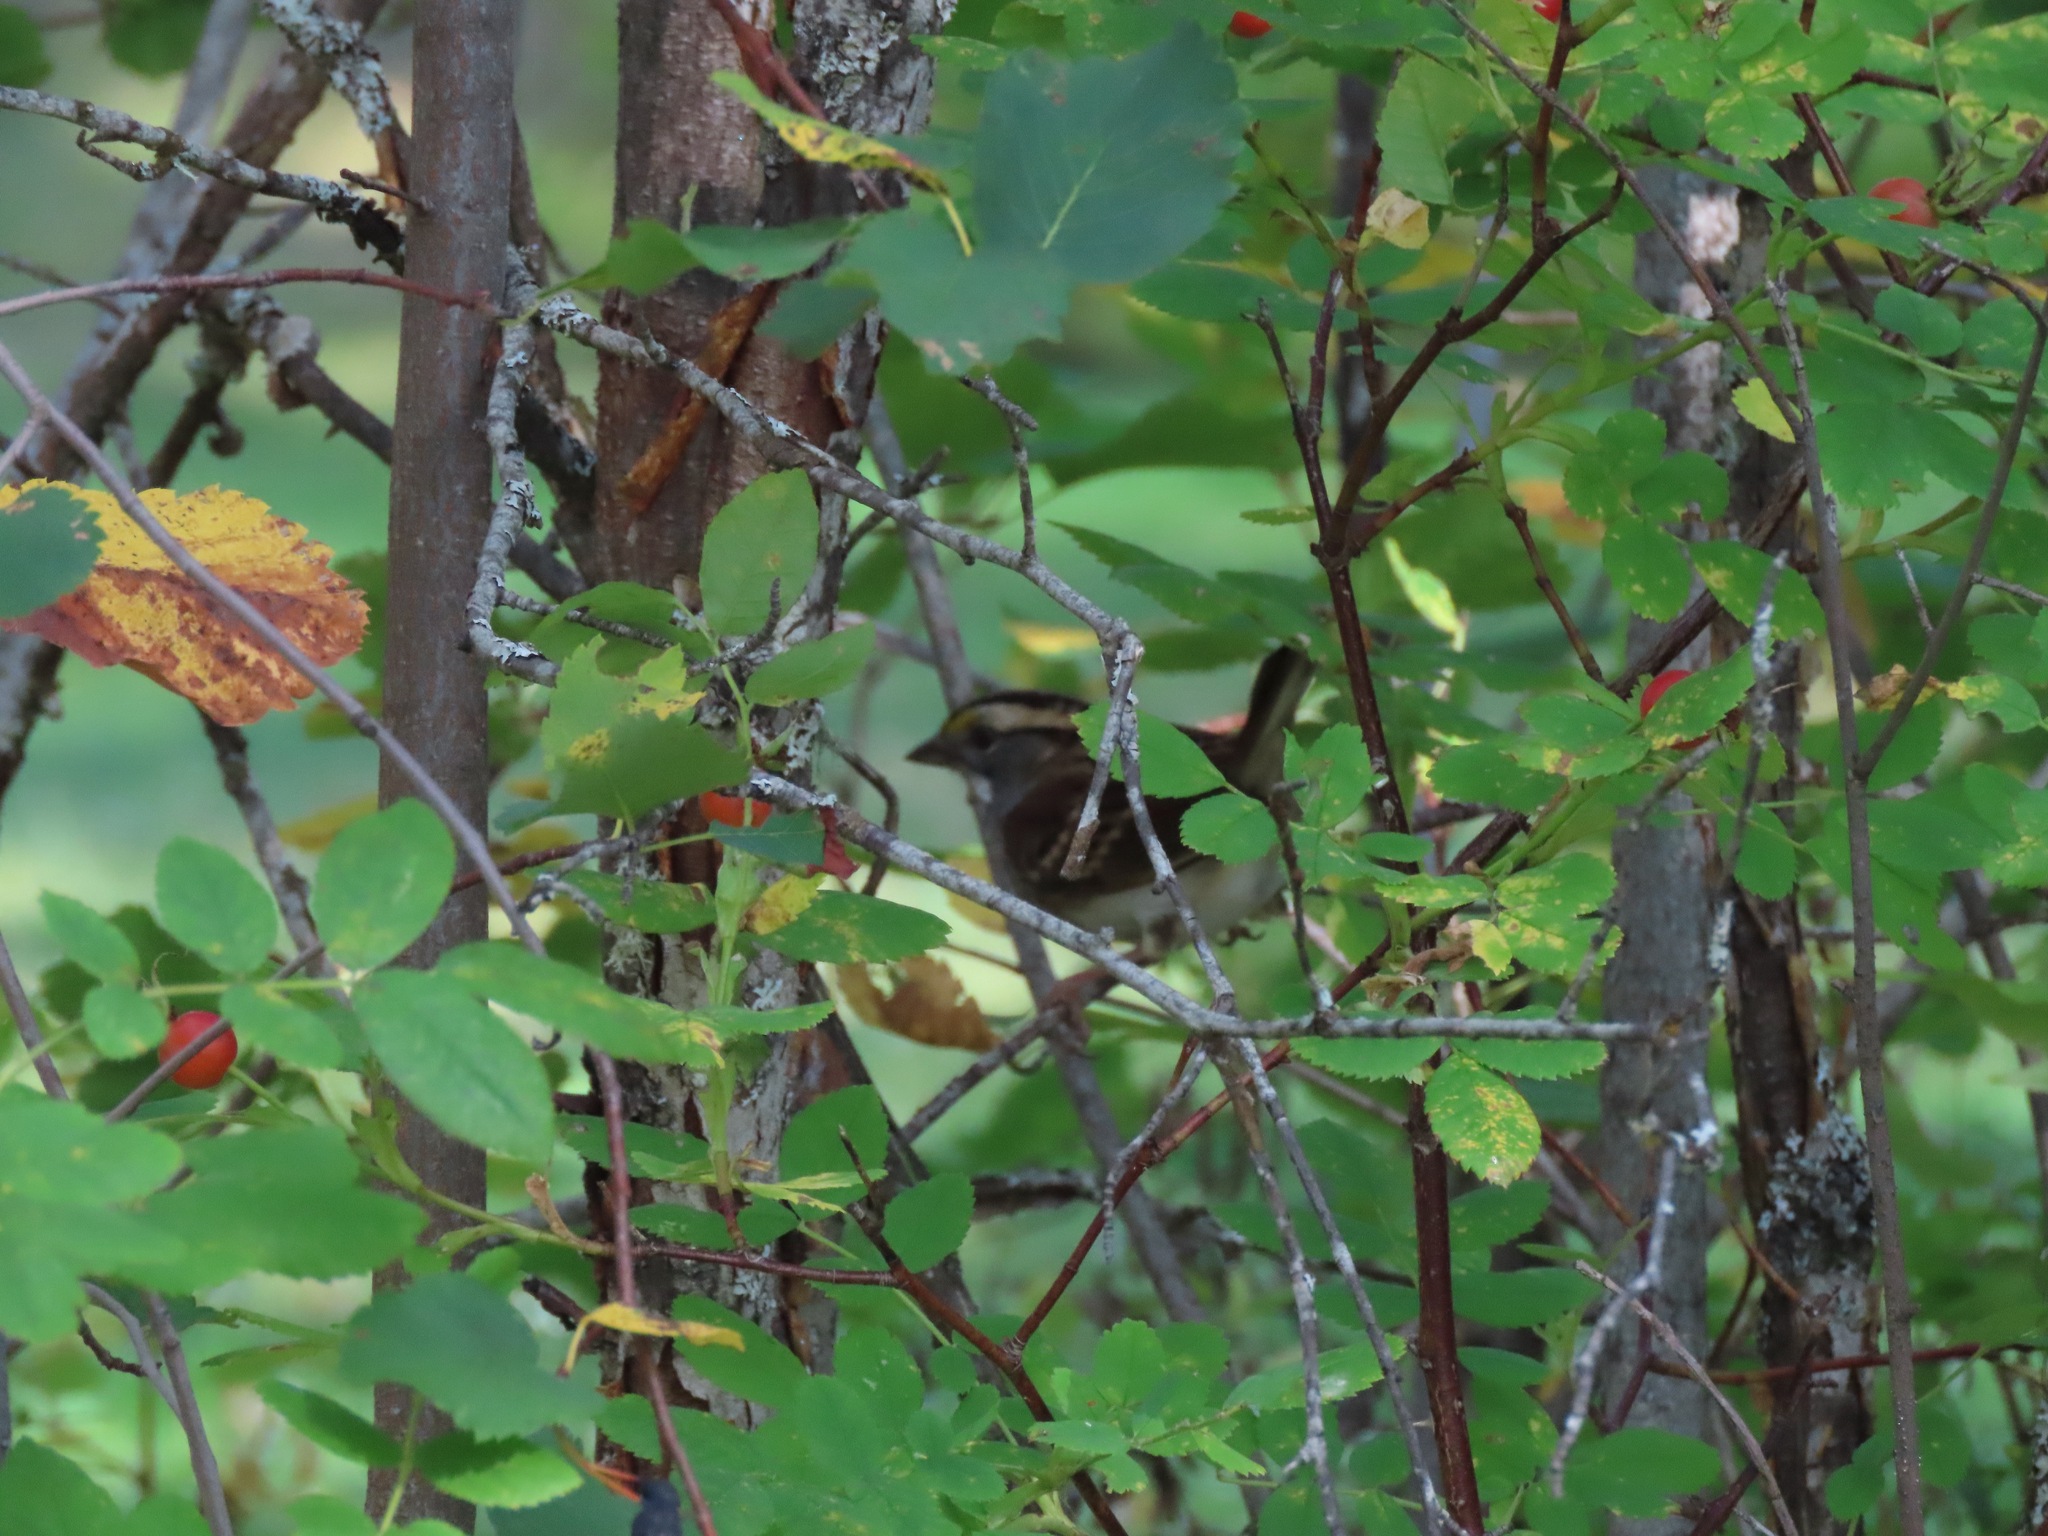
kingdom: Animalia
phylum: Chordata
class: Aves
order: Passeriformes
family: Passerellidae
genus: Zonotrichia
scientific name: Zonotrichia albicollis
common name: White-throated sparrow
